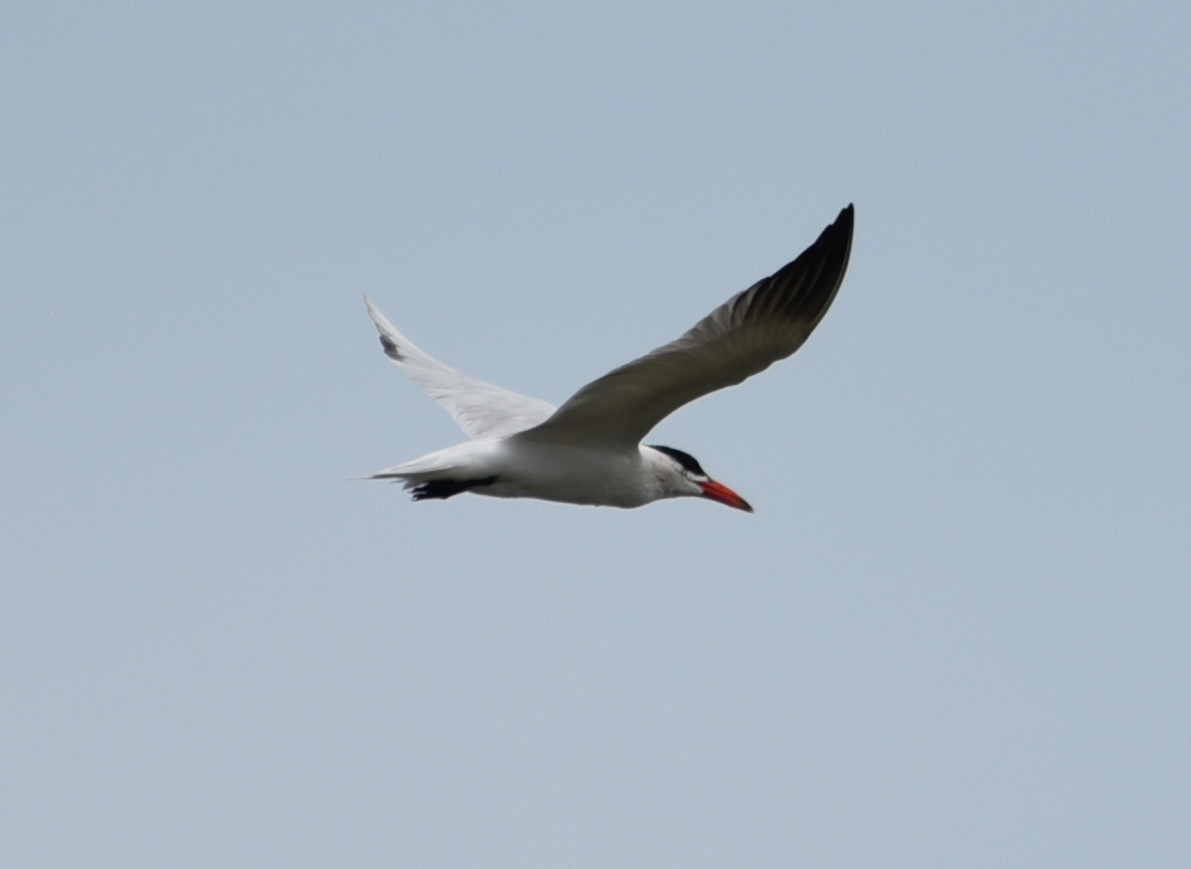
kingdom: Animalia
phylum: Chordata
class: Aves
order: Charadriiformes
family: Laridae
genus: Hydroprogne
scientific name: Hydroprogne caspia
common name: Caspian tern
